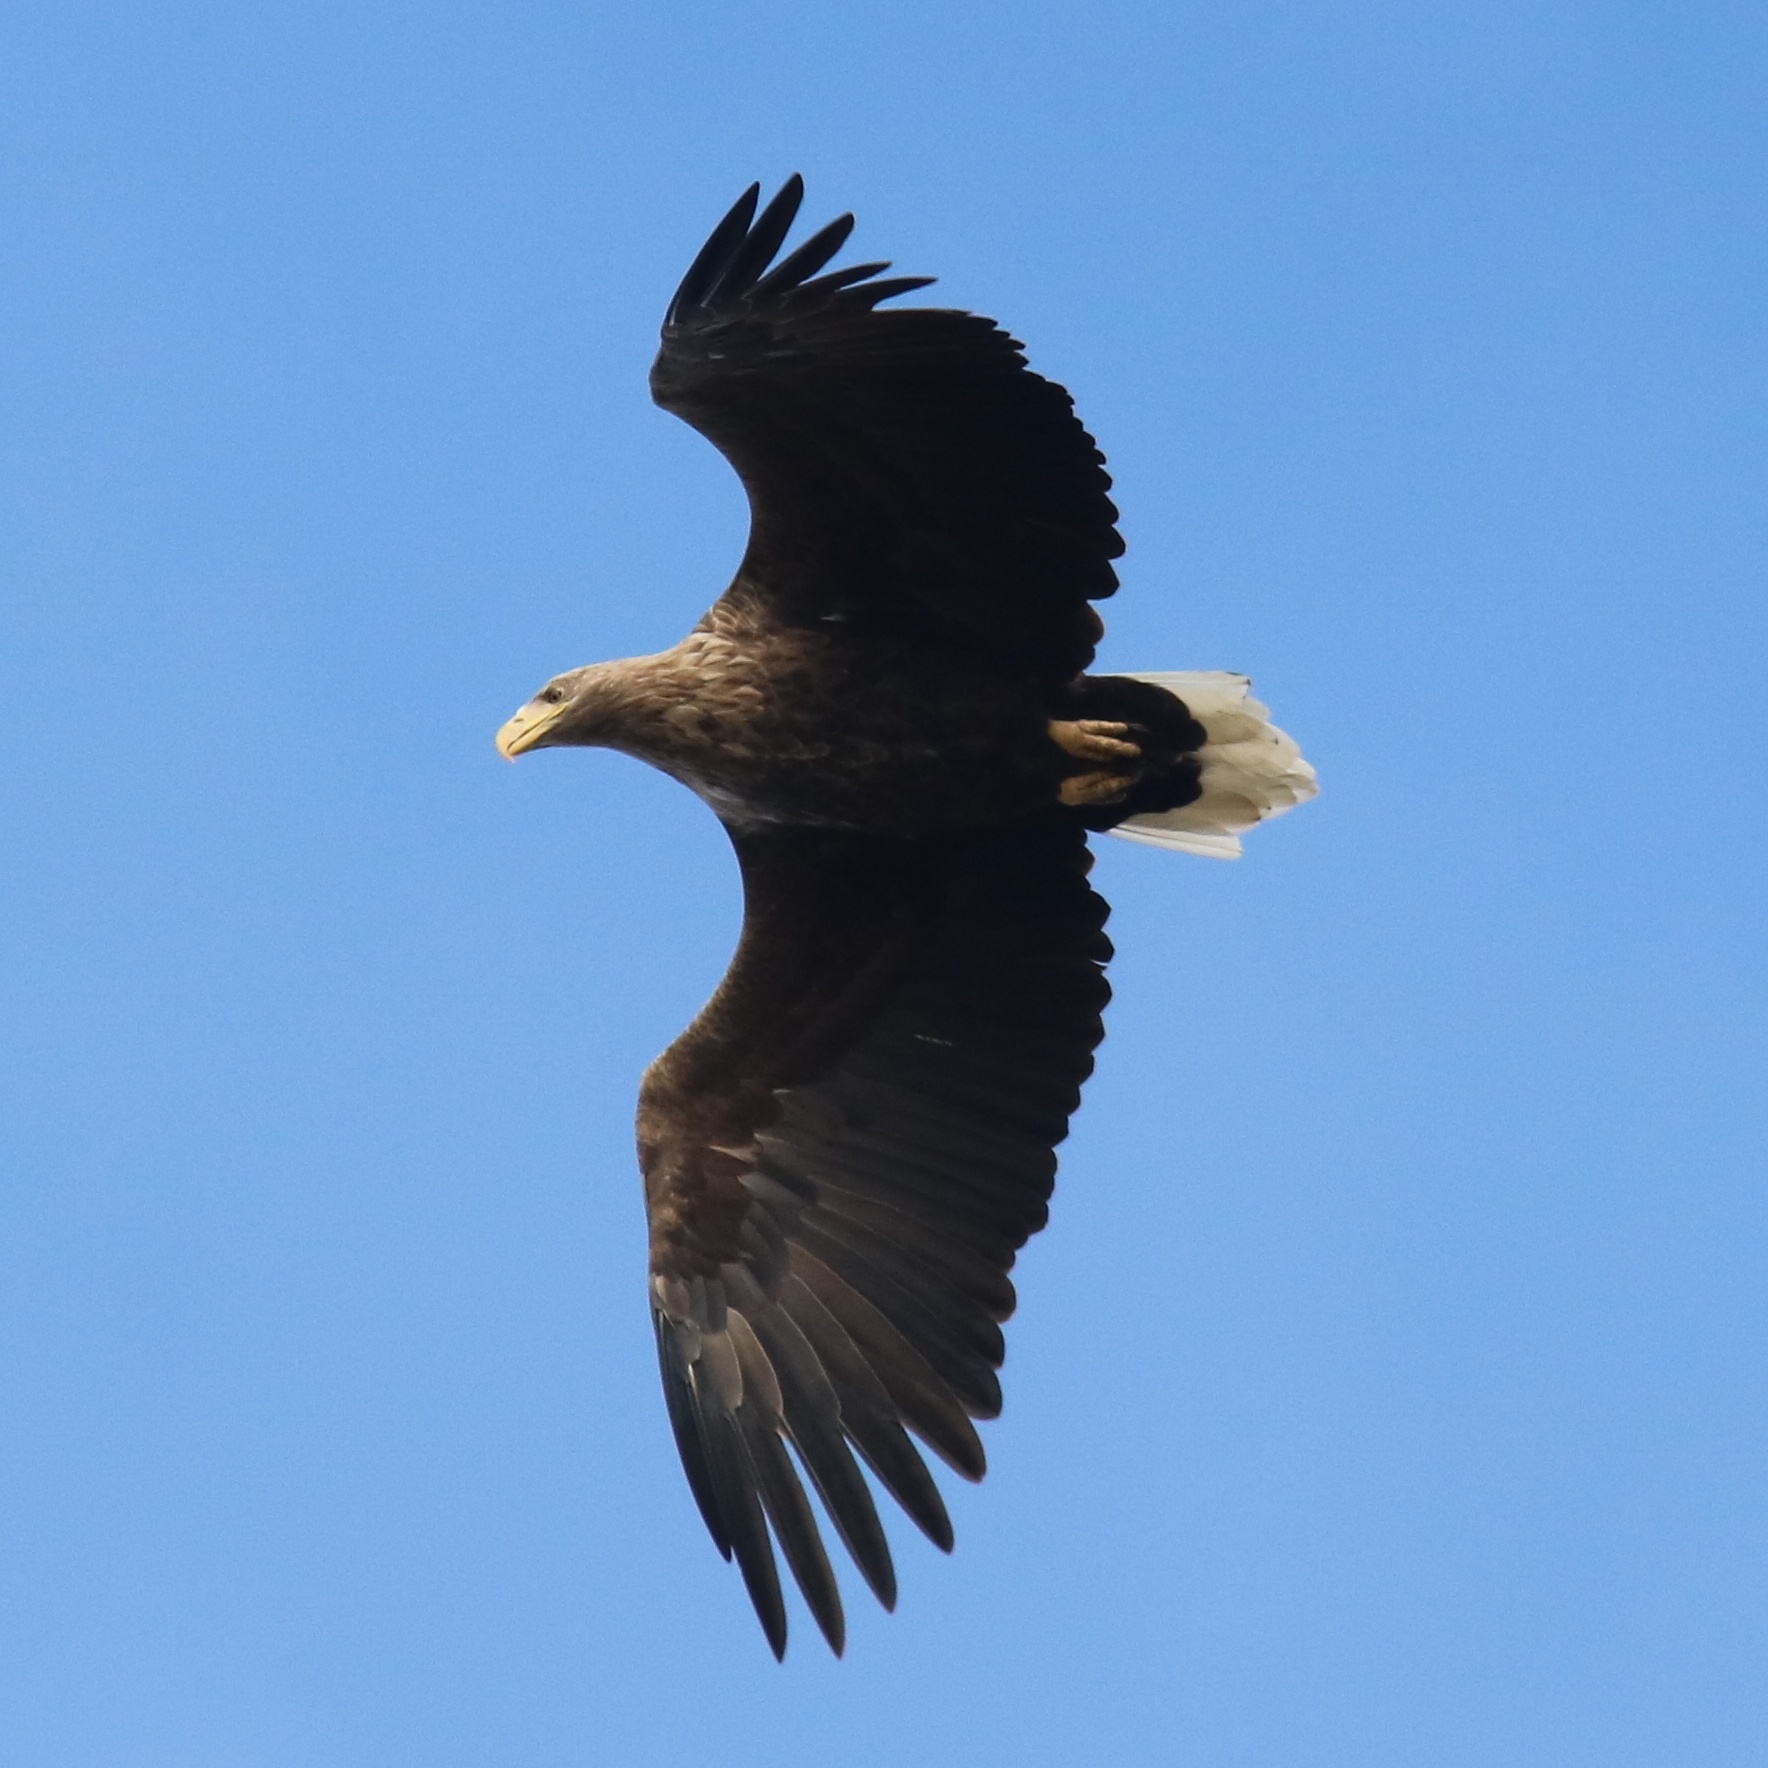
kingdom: Animalia
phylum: Chordata
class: Aves
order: Accipitriformes
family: Accipitridae
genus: Haliaeetus
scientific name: Haliaeetus albicilla
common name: White-tailed eagle
